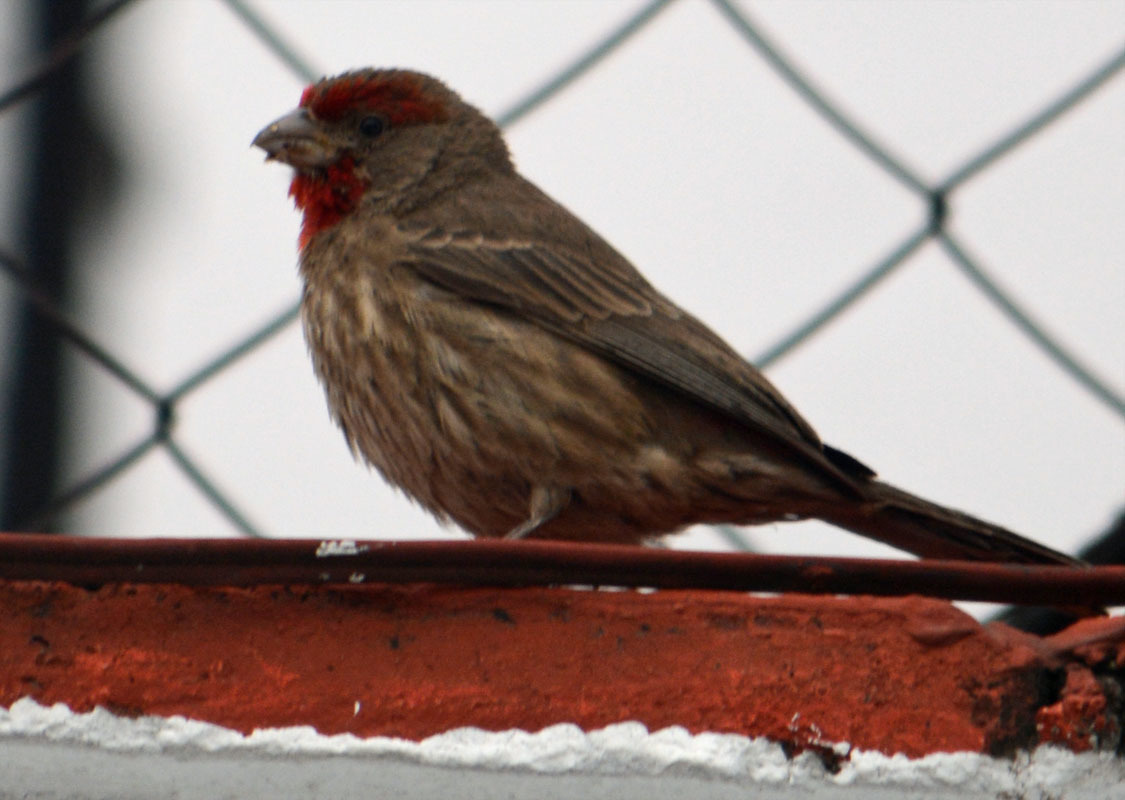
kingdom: Animalia
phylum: Chordata
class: Aves
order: Passeriformes
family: Fringillidae
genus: Haemorhous
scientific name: Haemorhous mexicanus
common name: House finch
